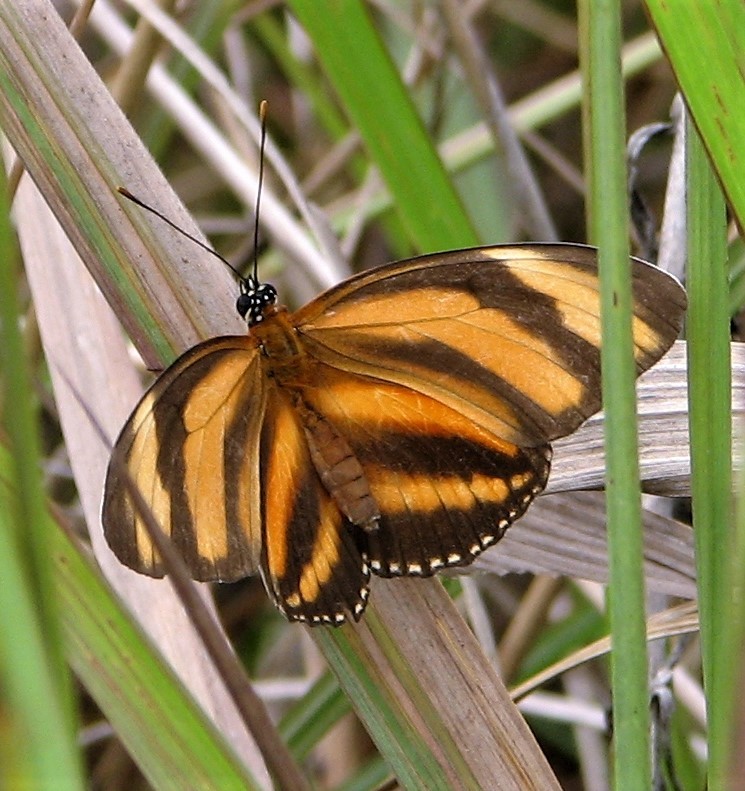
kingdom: Animalia
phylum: Arthropoda
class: Insecta
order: Lepidoptera
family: Nymphalidae
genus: Dryadula
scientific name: Dryadula phaetusa
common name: Banded orange heliconian
